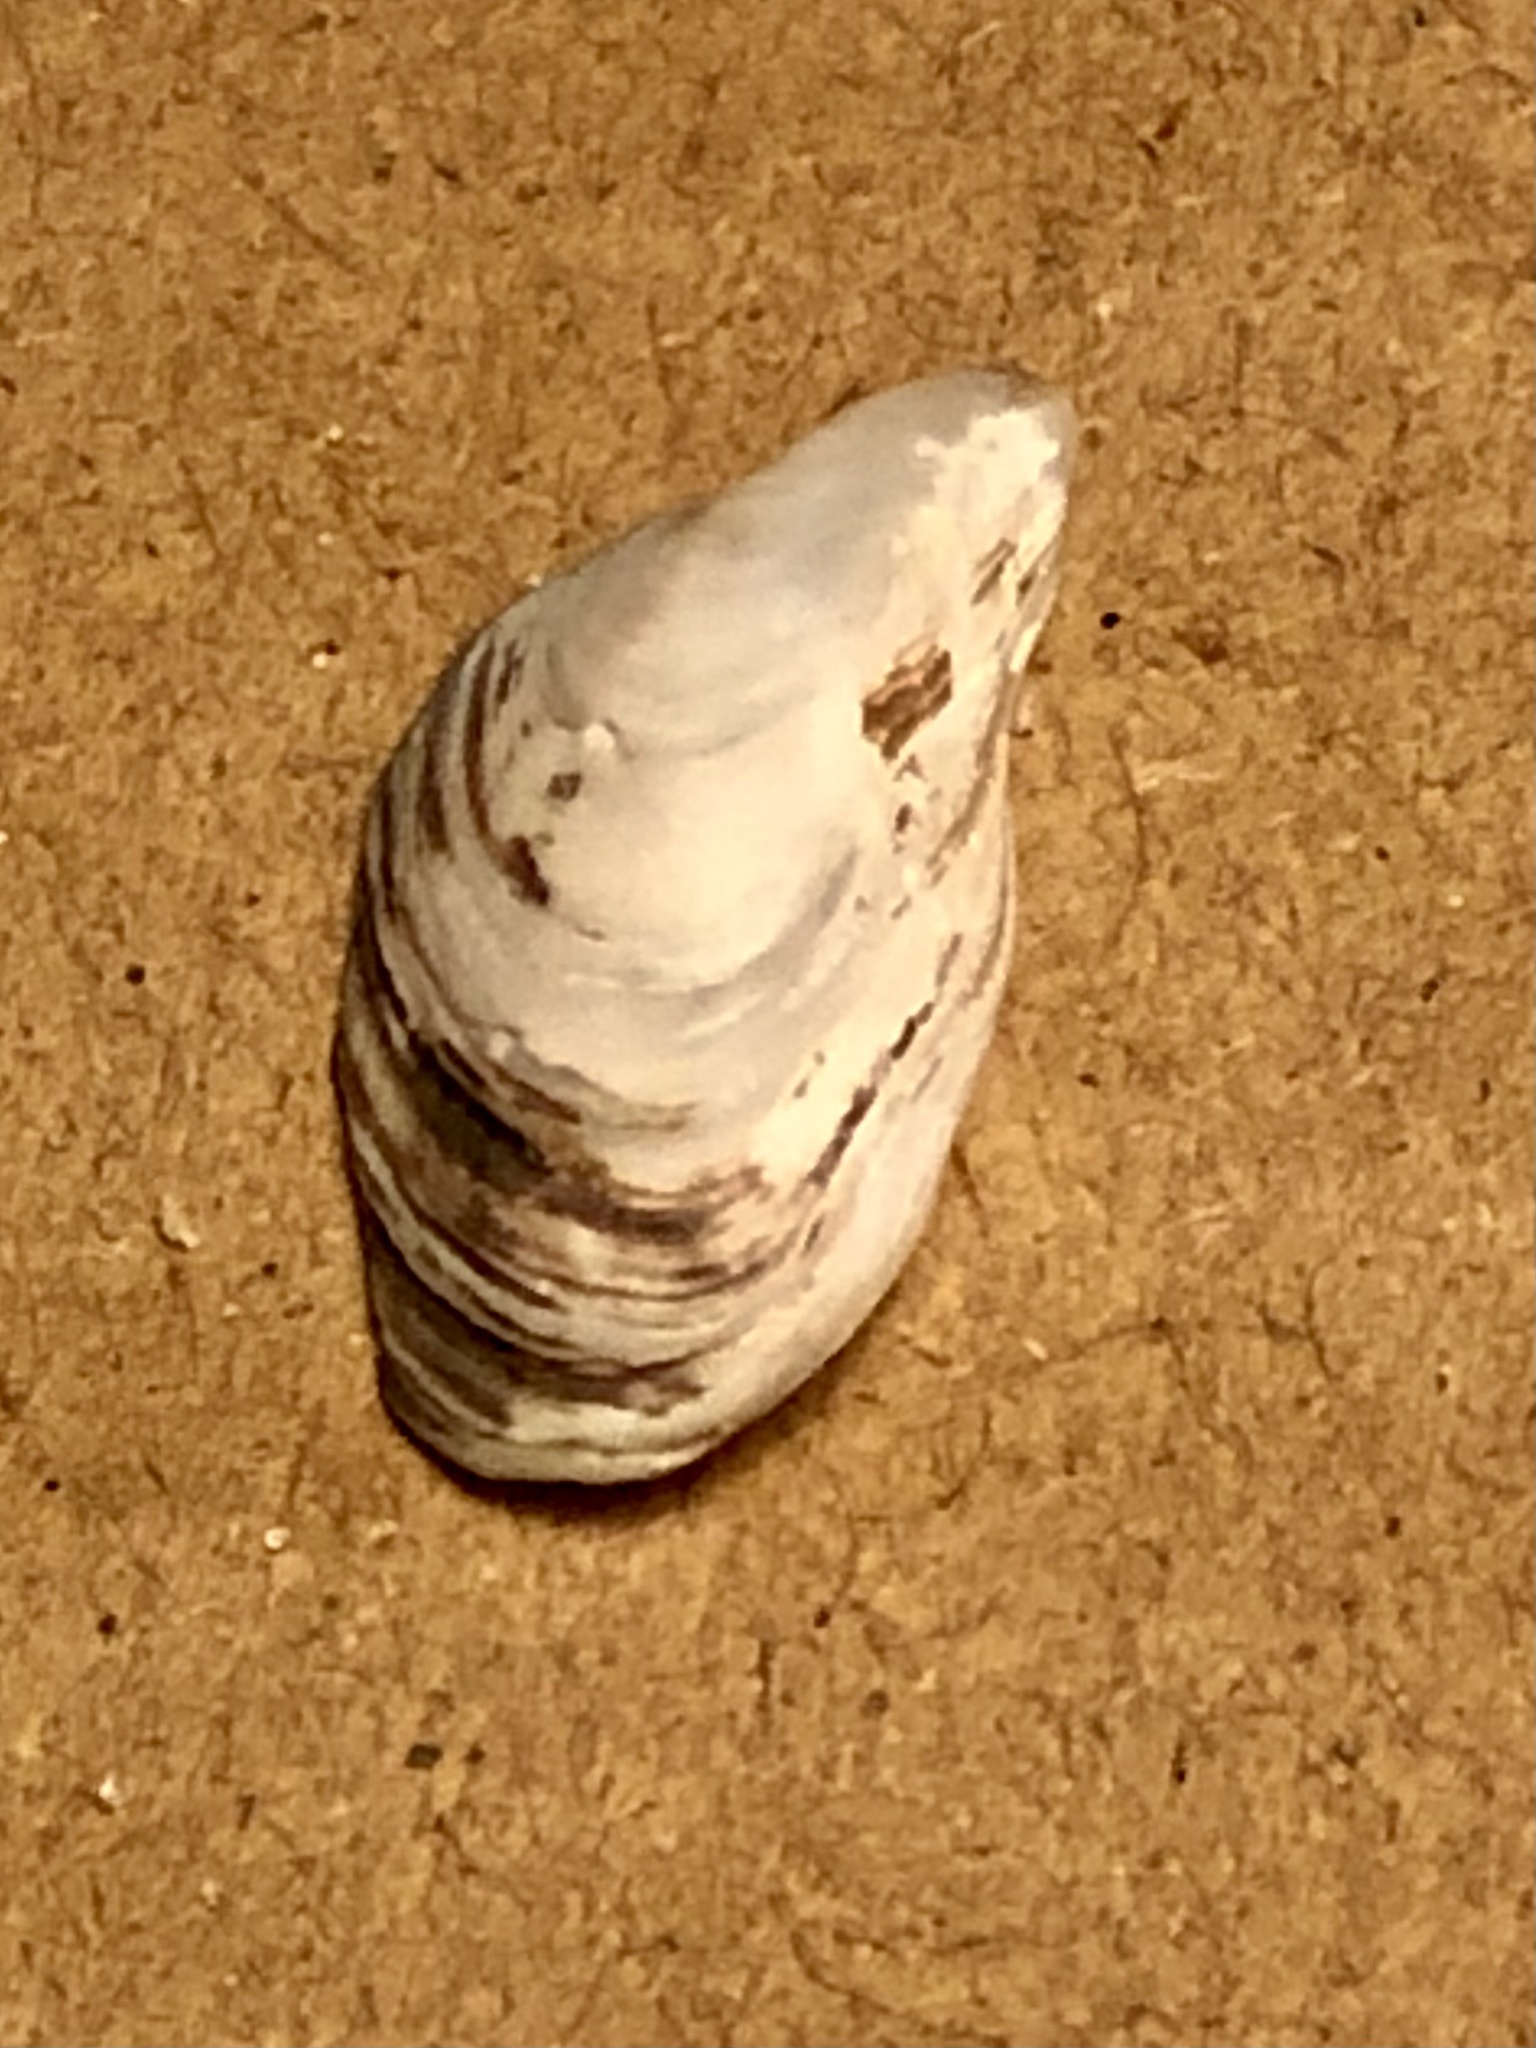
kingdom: Animalia
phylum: Mollusca
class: Bivalvia
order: Myida
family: Dreissenidae
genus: Dreissena
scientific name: Dreissena bugensis
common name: Quagga mussel
